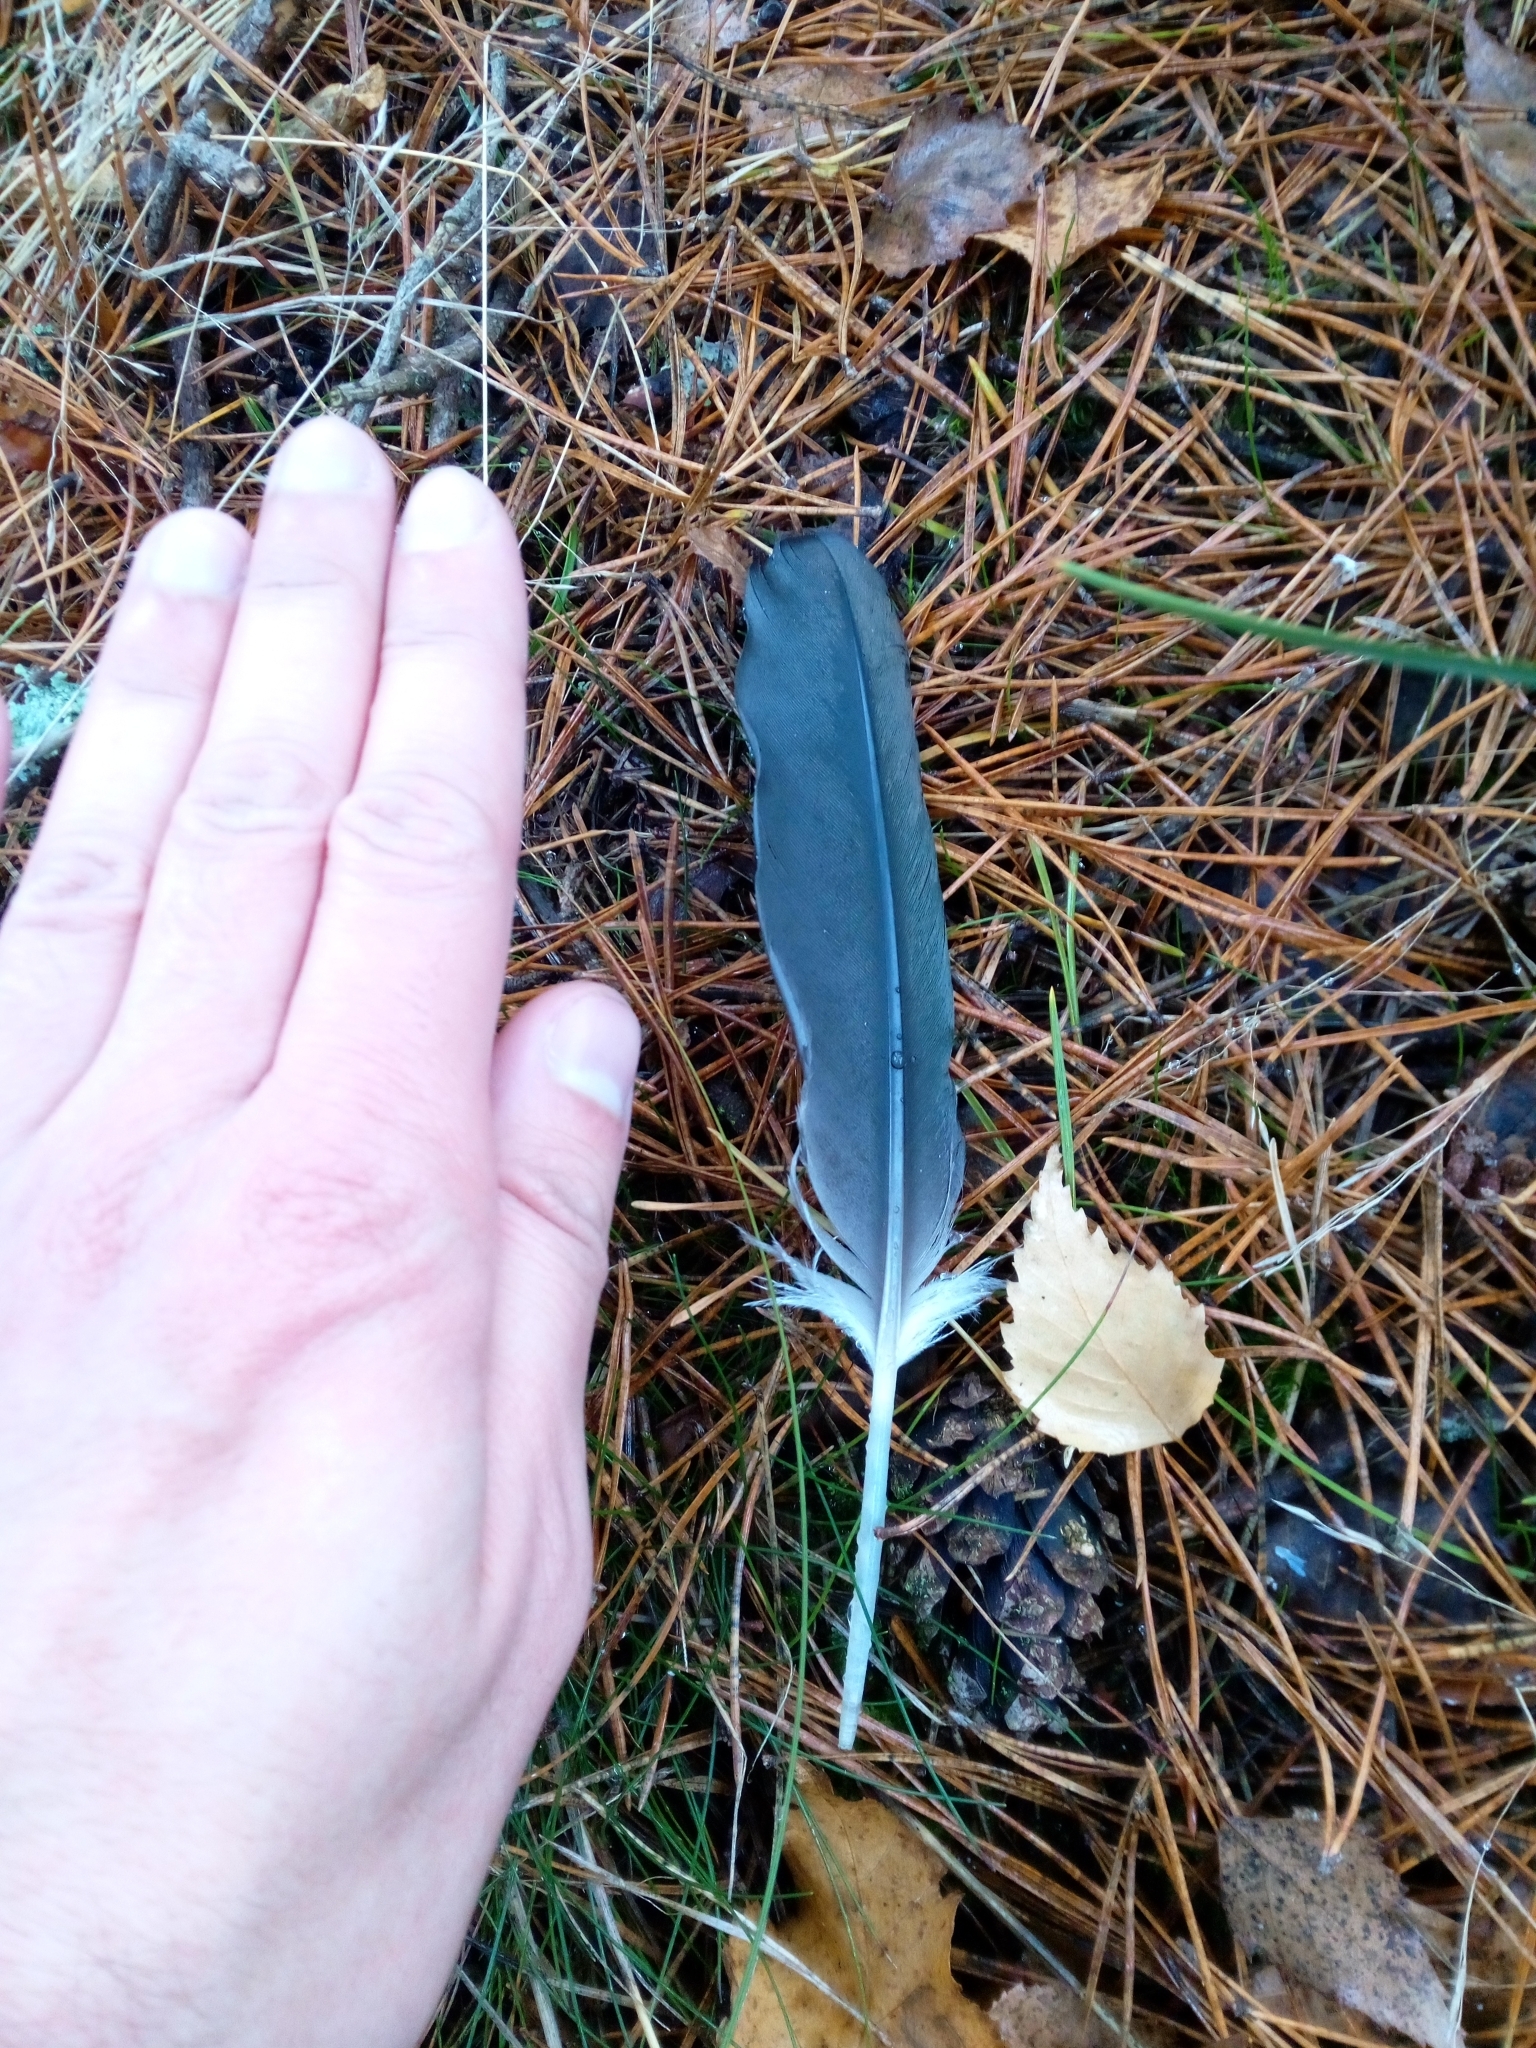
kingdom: Animalia
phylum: Chordata
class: Aves
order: Suliformes
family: Phalacrocoracidae
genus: Phalacrocorax
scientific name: Phalacrocorax carbo
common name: Great cormorant
